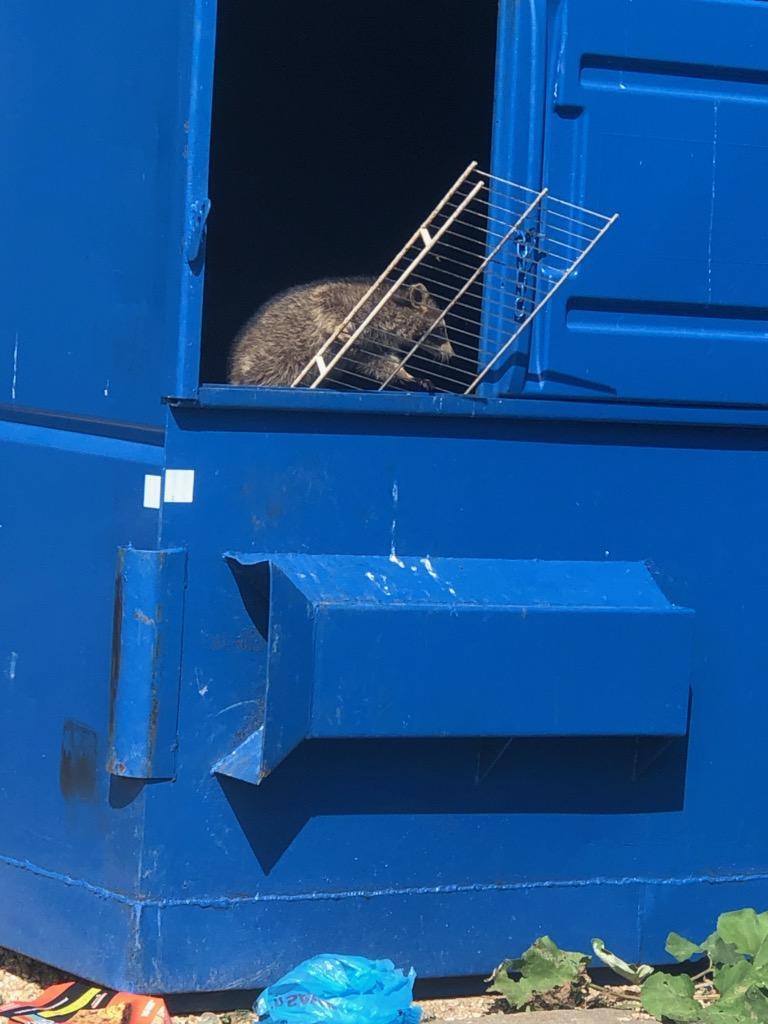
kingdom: Animalia
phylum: Chordata
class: Mammalia
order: Carnivora
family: Procyonidae
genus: Procyon
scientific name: Procyon lotor
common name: Raccoon
